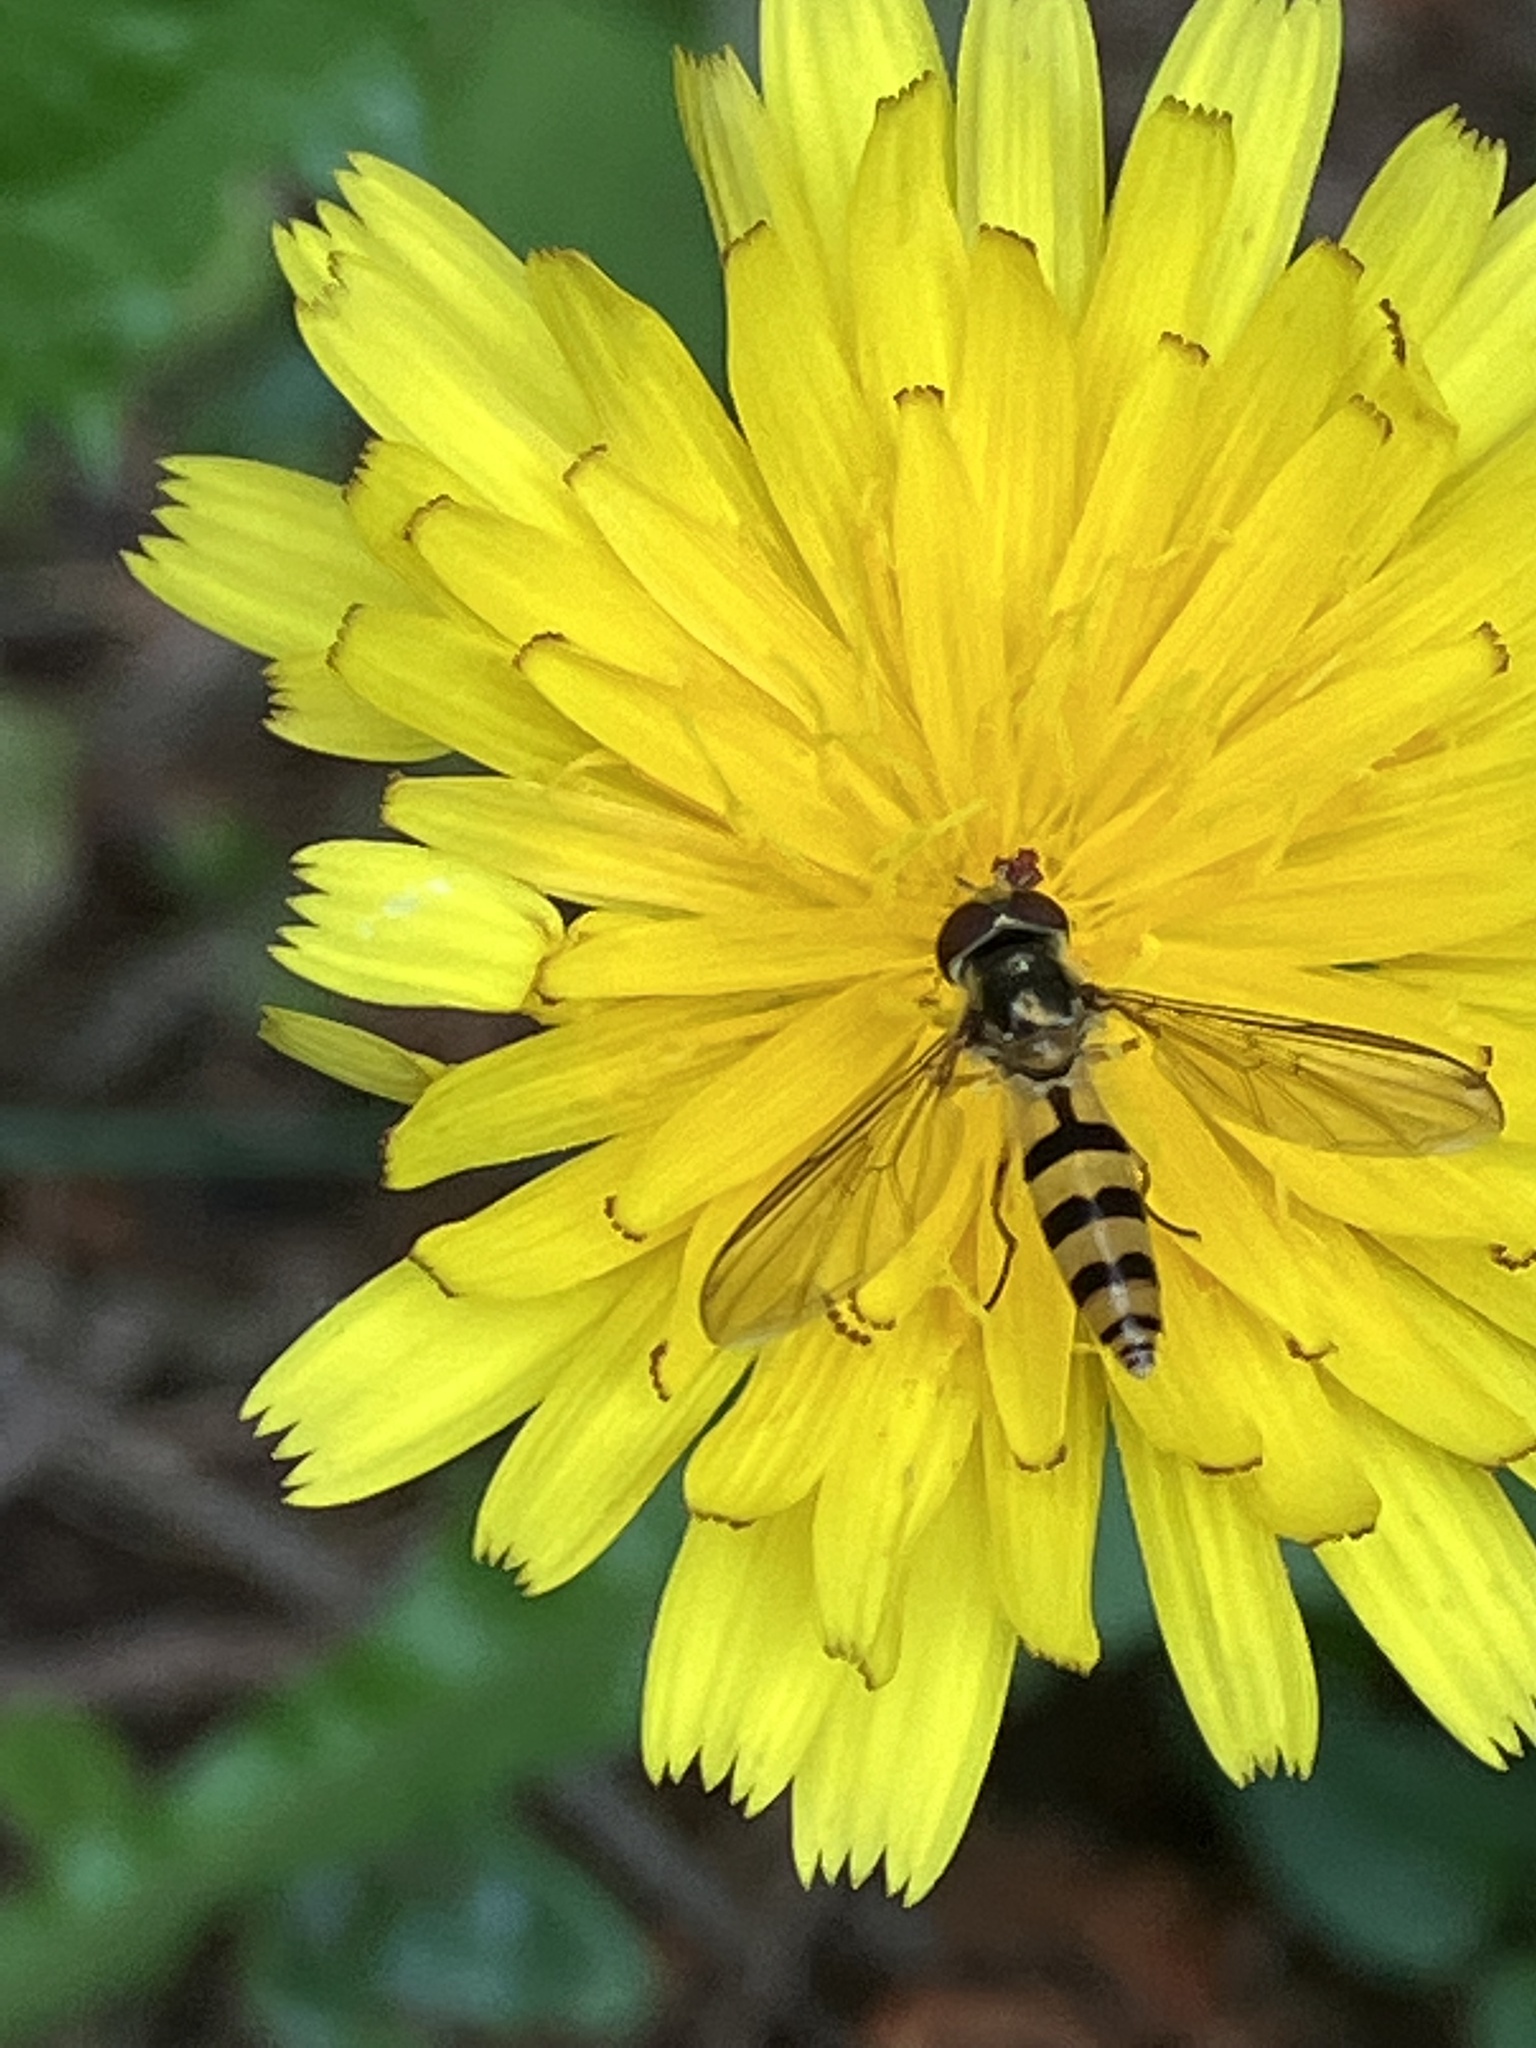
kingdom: Animalia
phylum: Arthropoda
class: Insecta
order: Diptera
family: Syrphidae
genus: Meliscaeva
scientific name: Meliscaeva cinctella
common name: American thintail fly
